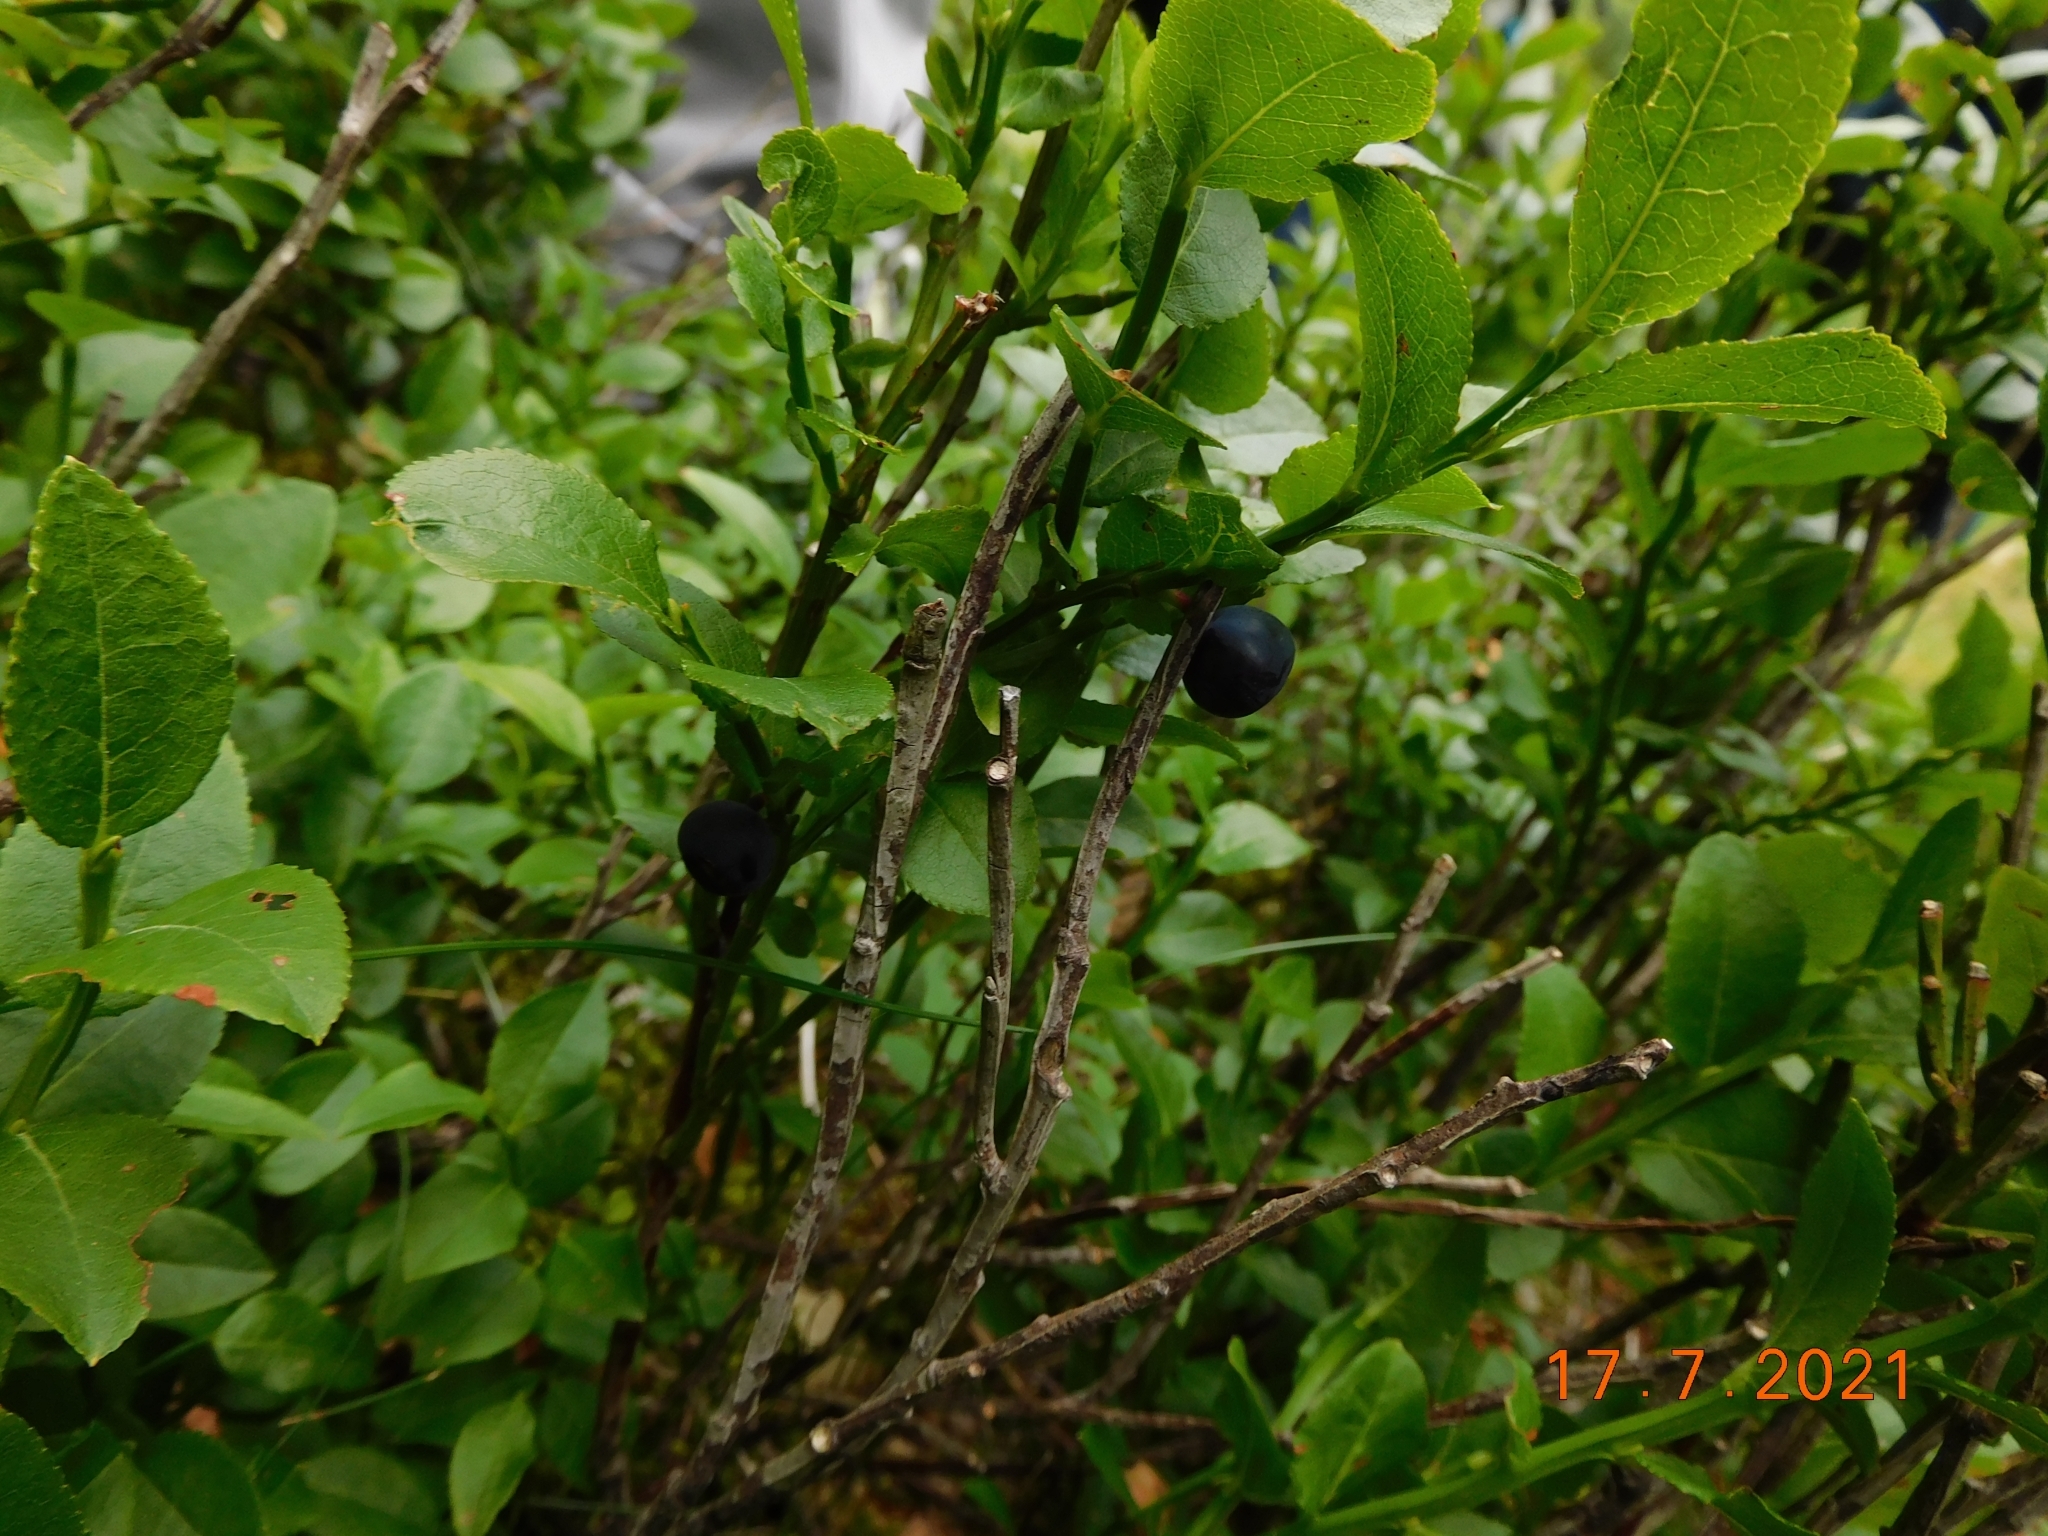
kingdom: Plantae
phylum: Tracheophyta
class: Magnoliopsida
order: Ericales
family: Ericaceae
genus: Vaccinium
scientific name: Vaccinium myrtillus
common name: Bilberry
